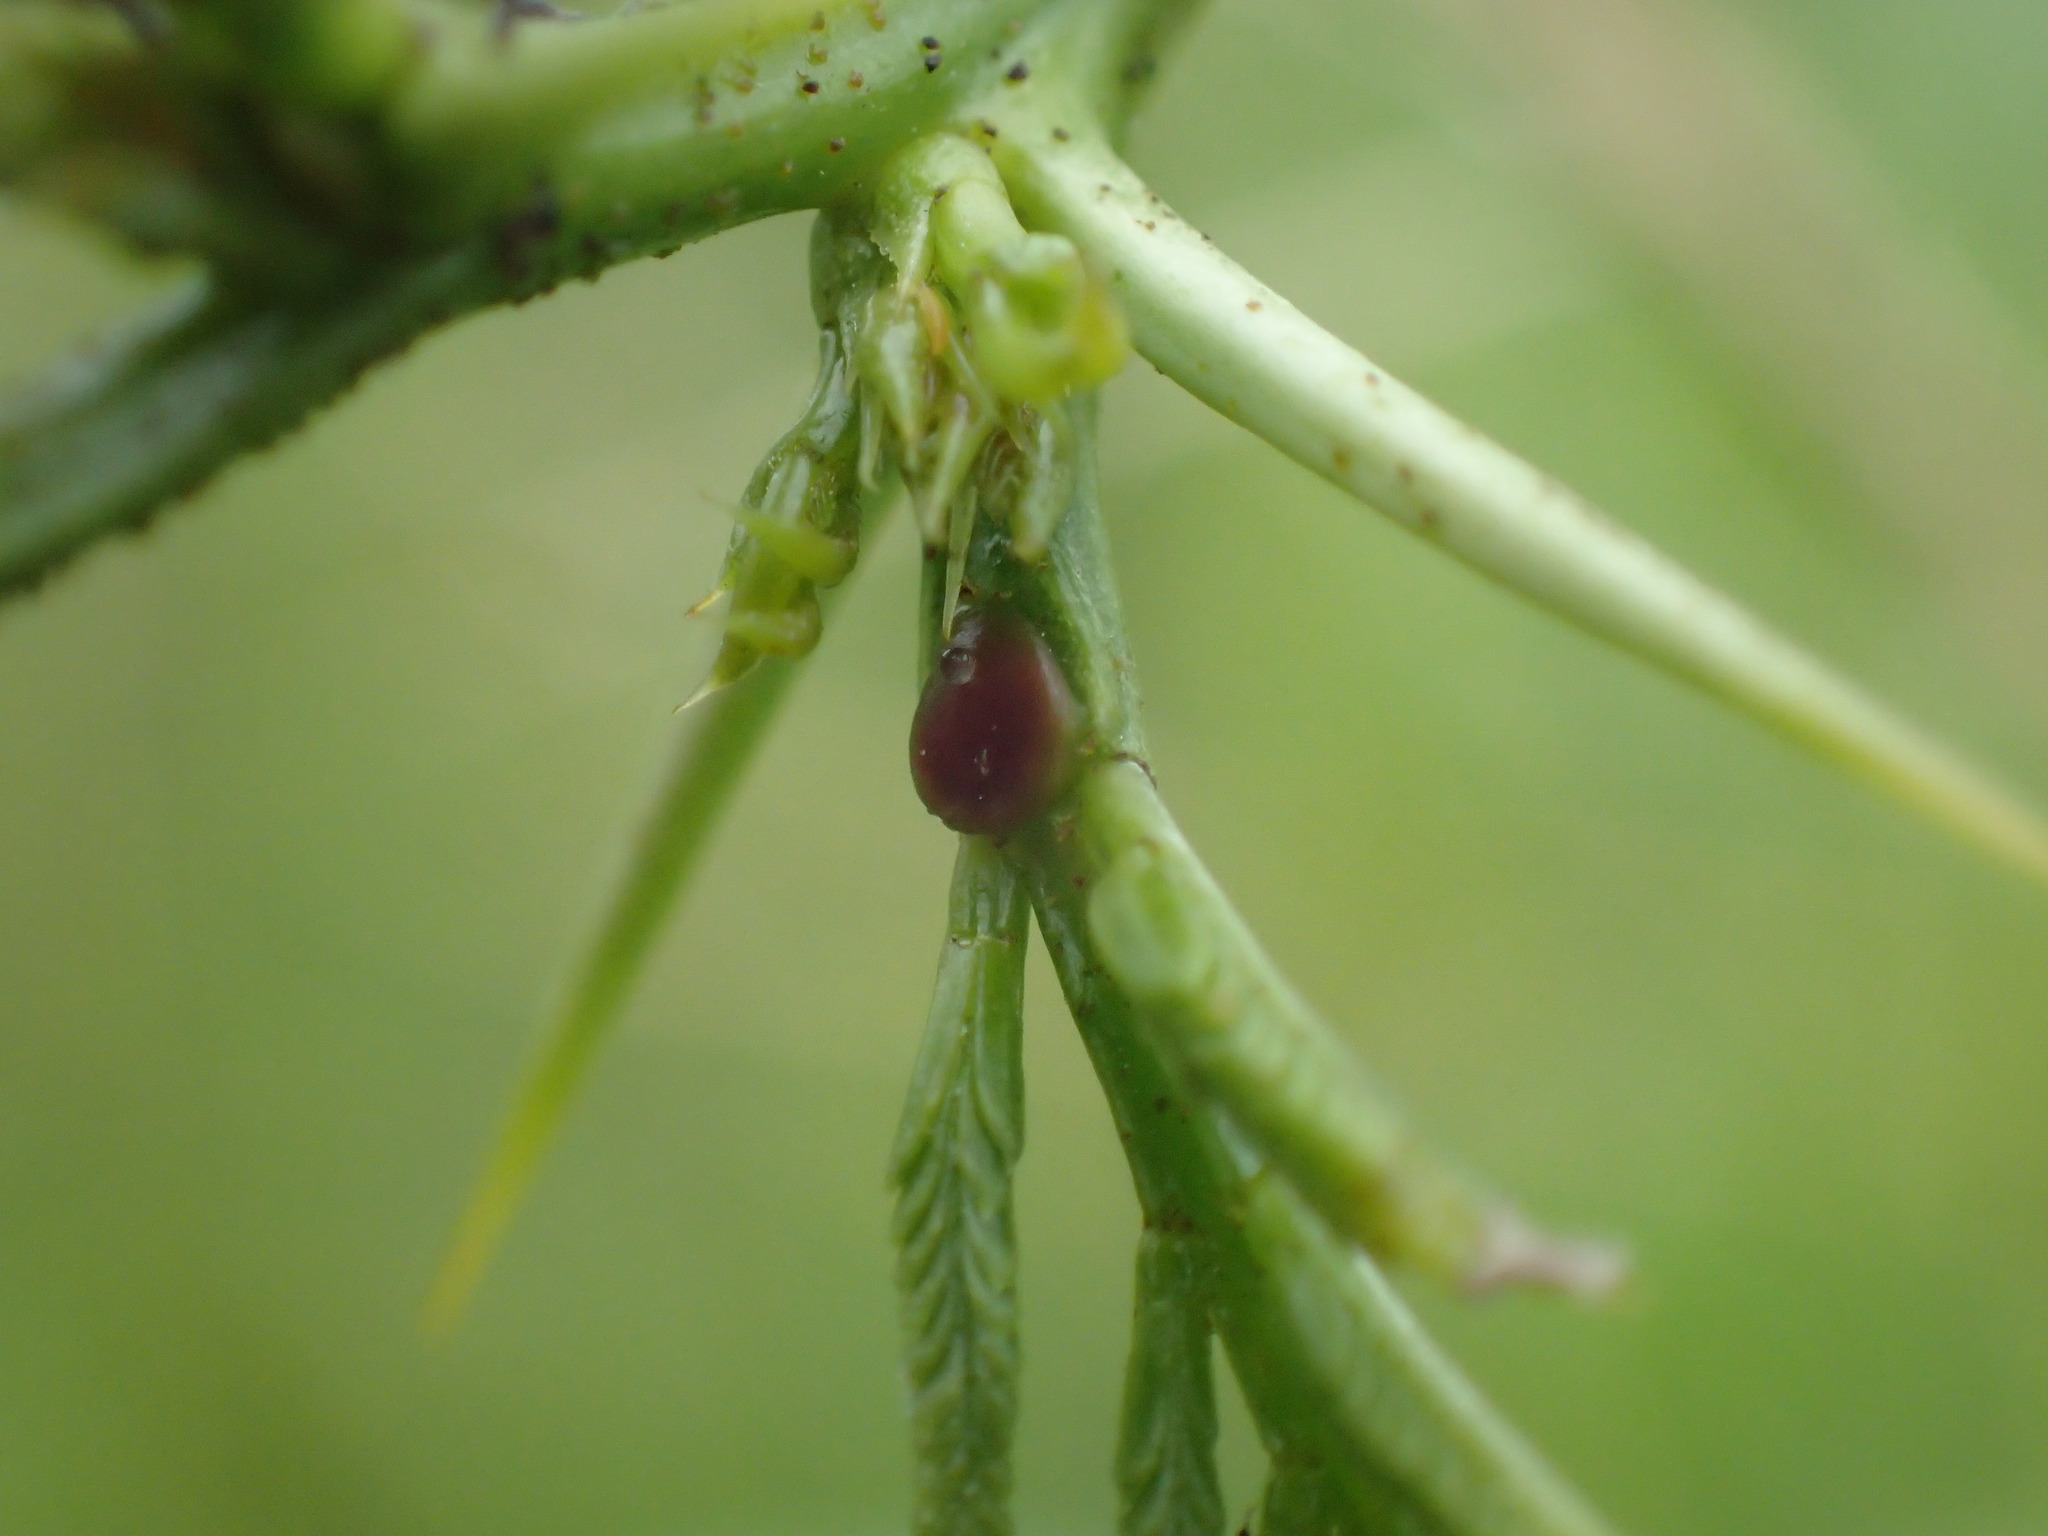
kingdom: Animalia
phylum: Arthropoda
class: Insecta
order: Hymenoptera
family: Formicidae
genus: Polyrhachis
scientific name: Polyrhachis schistacea
